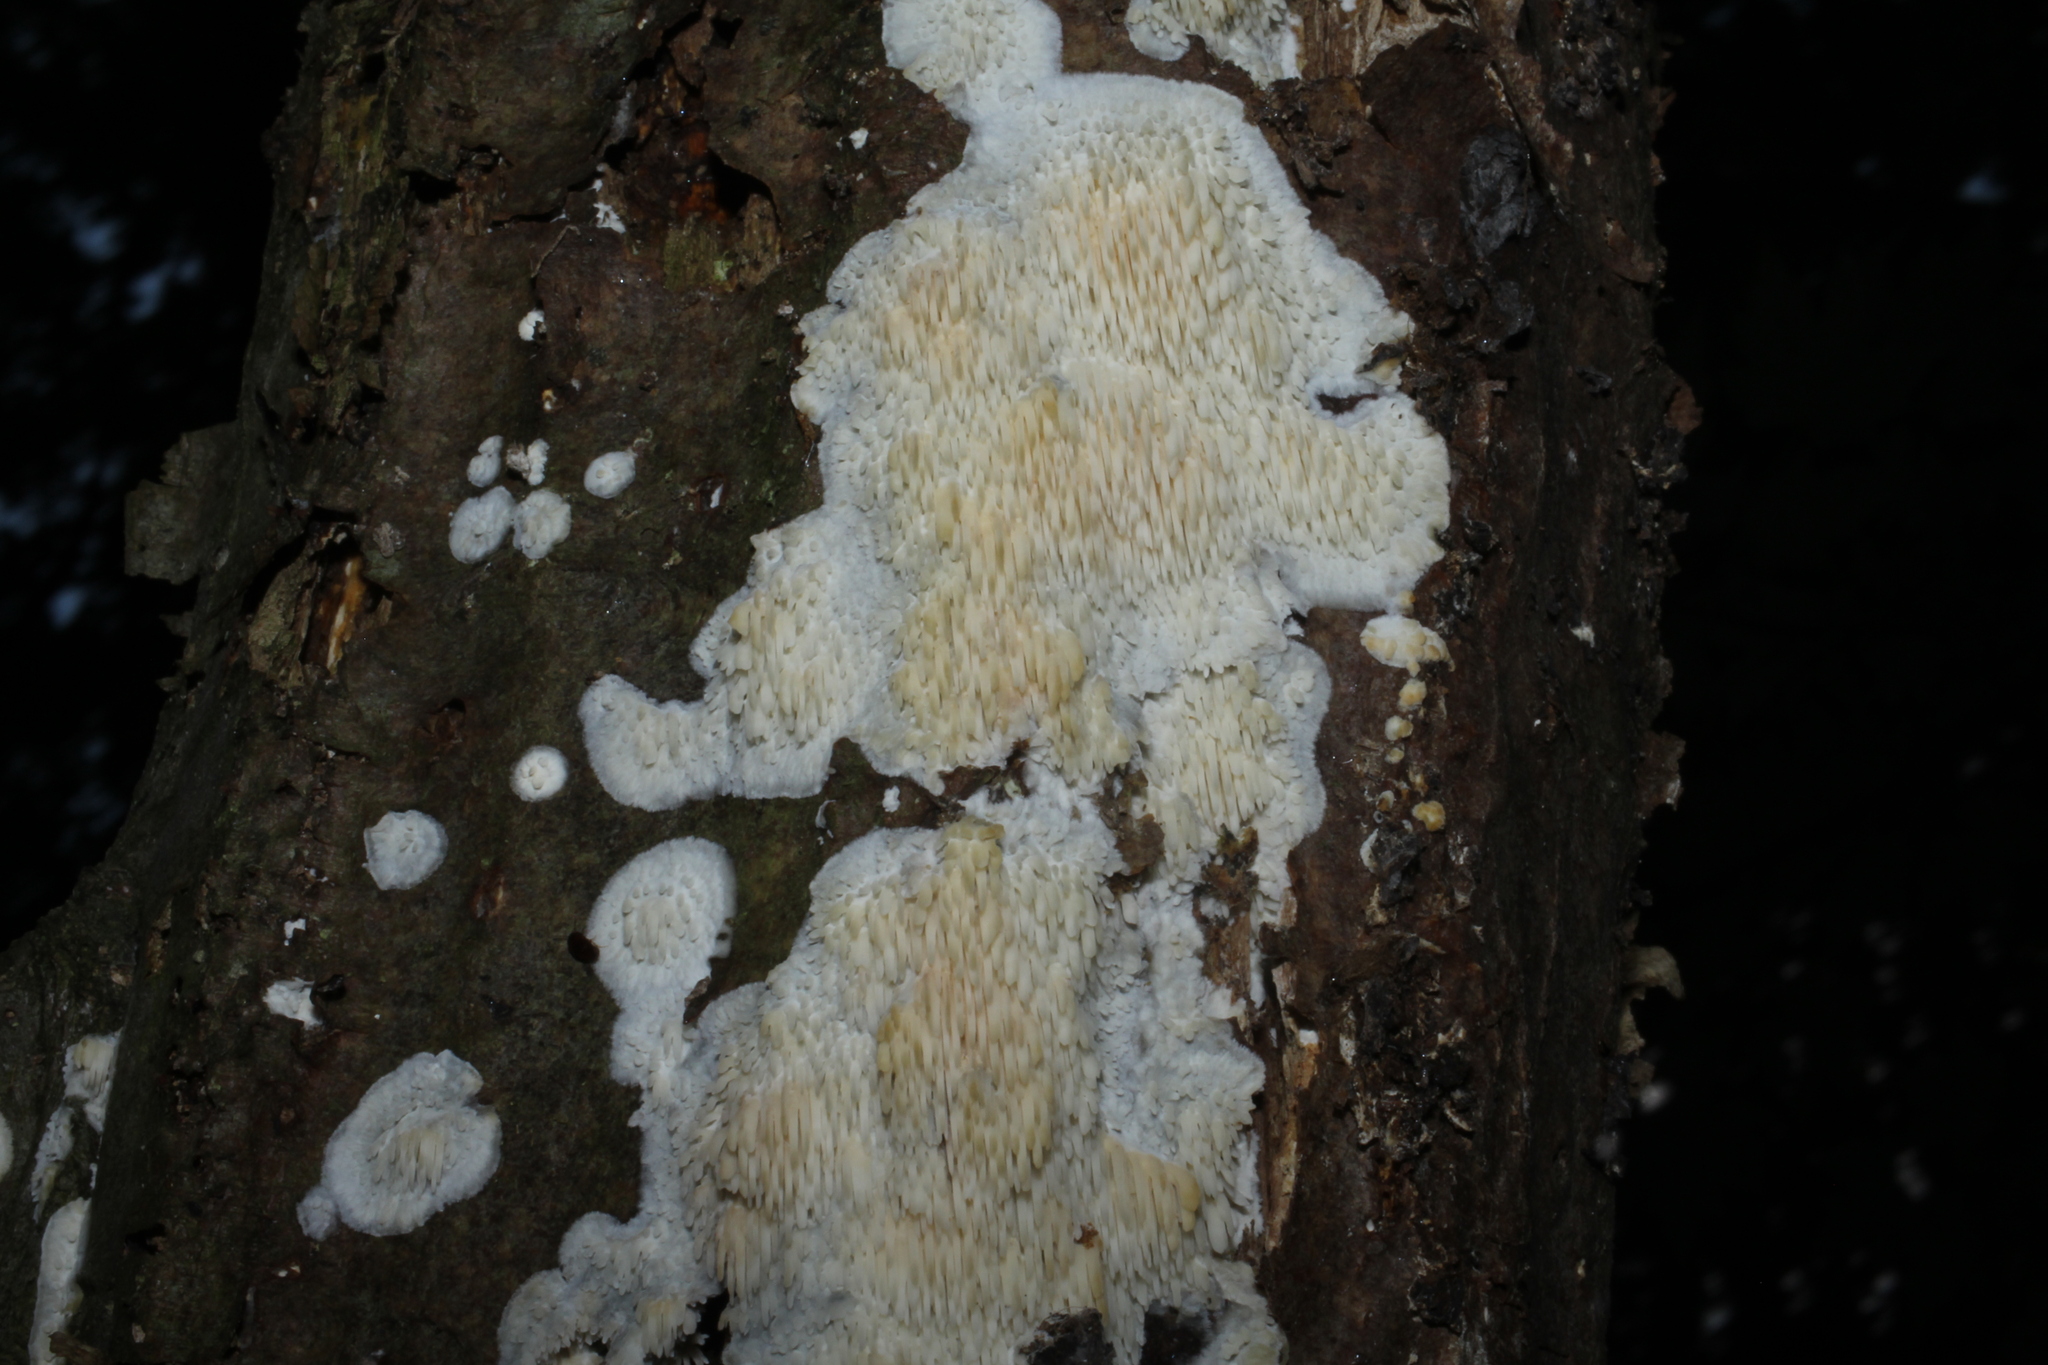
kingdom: Fungi
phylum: Basidiomycota
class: Agaricomycetes
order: Agaricales
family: Radulomycetaceae
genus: Radulomyces
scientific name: Radulomyces copelandii
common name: Asian beauty
